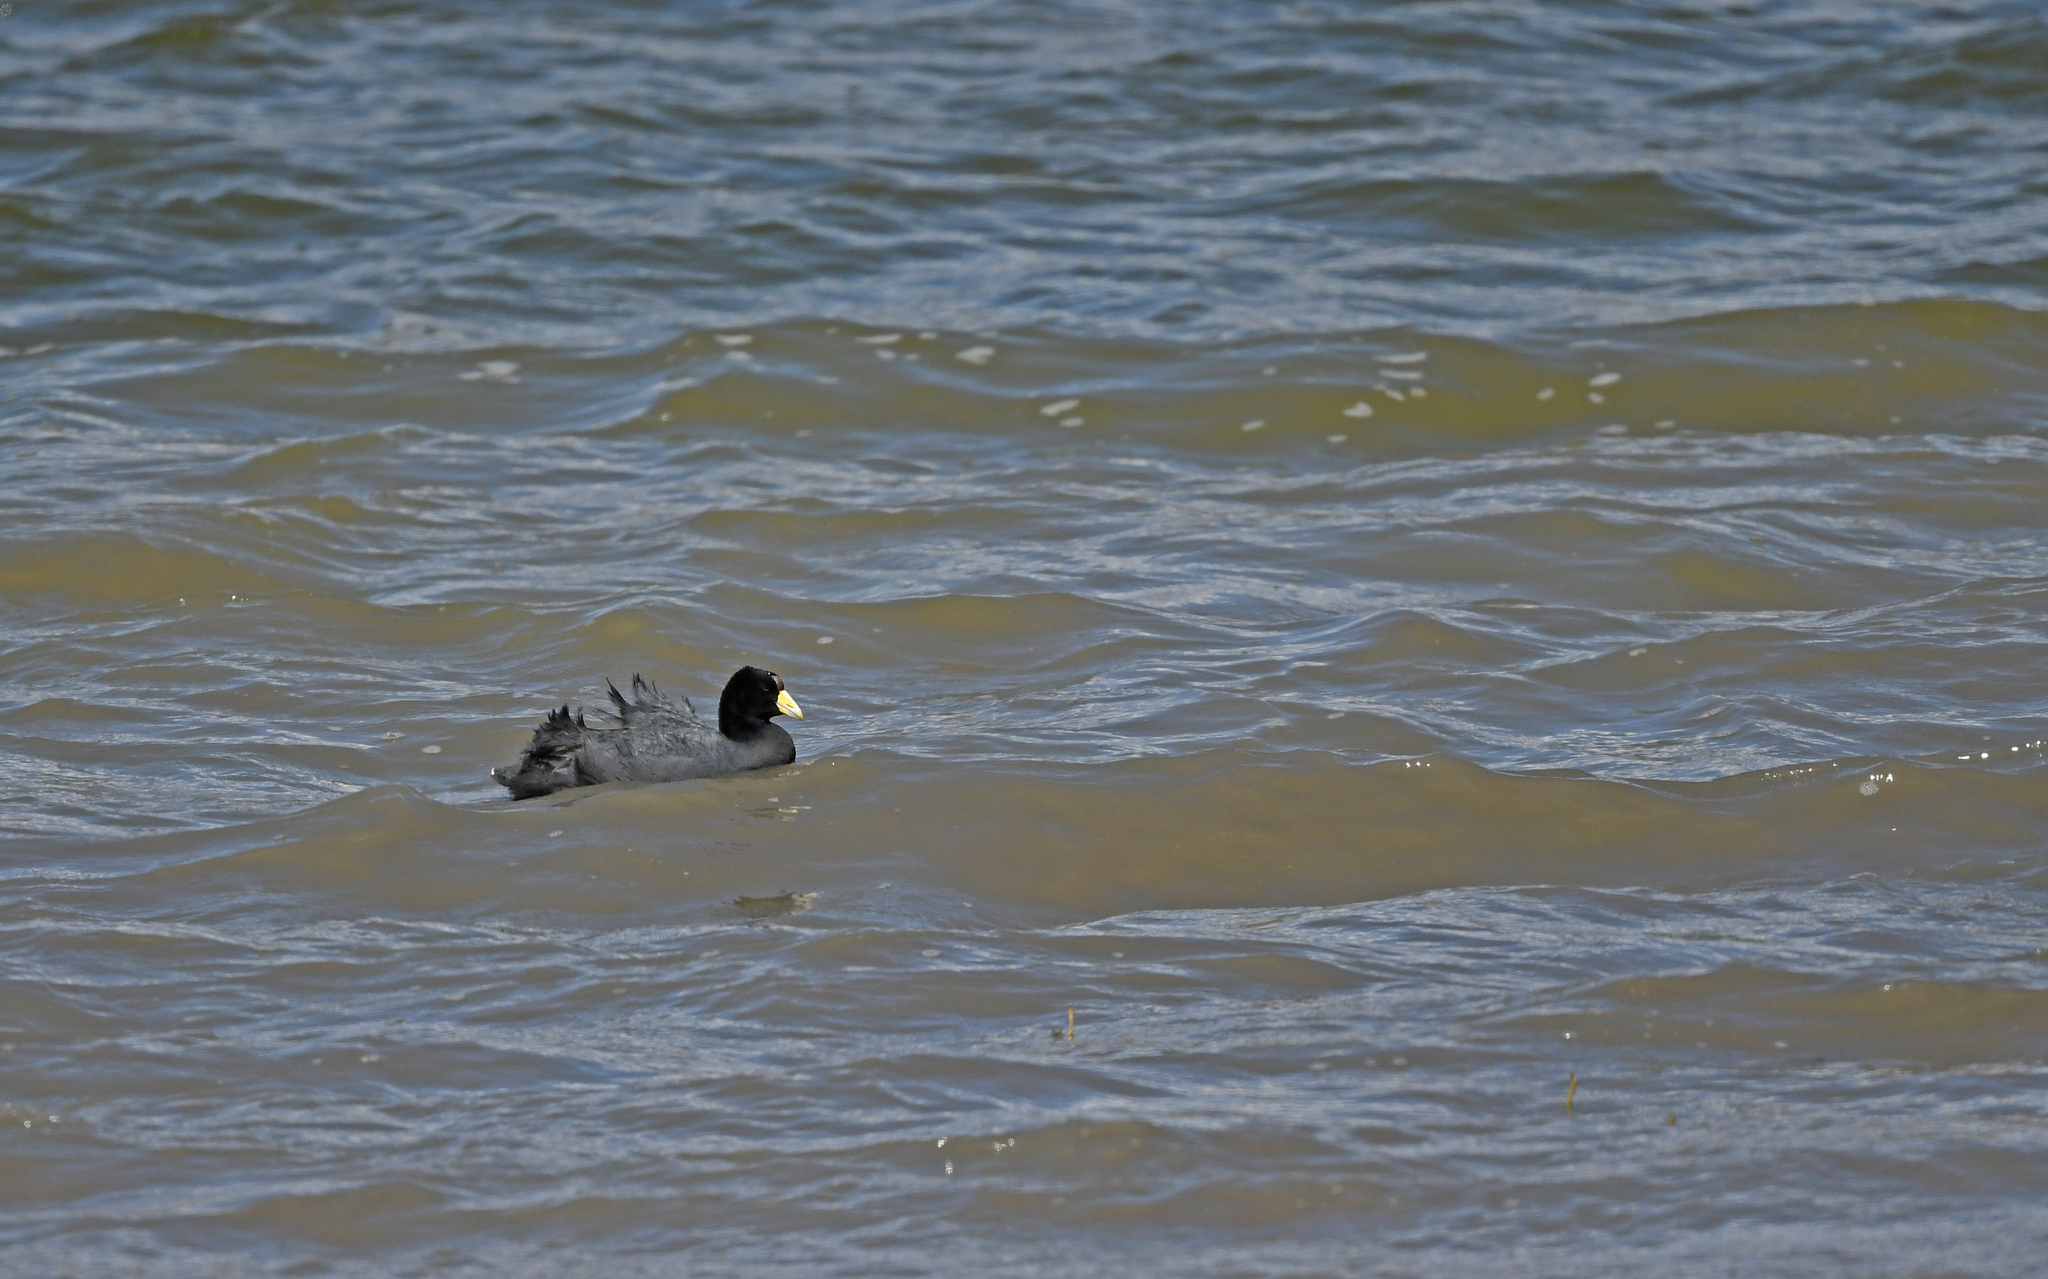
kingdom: Animalia
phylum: Chordata
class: Aves
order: Gruiformes
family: Rallidae
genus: Fulica
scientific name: Fulica ardesiaca
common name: Andean coot
